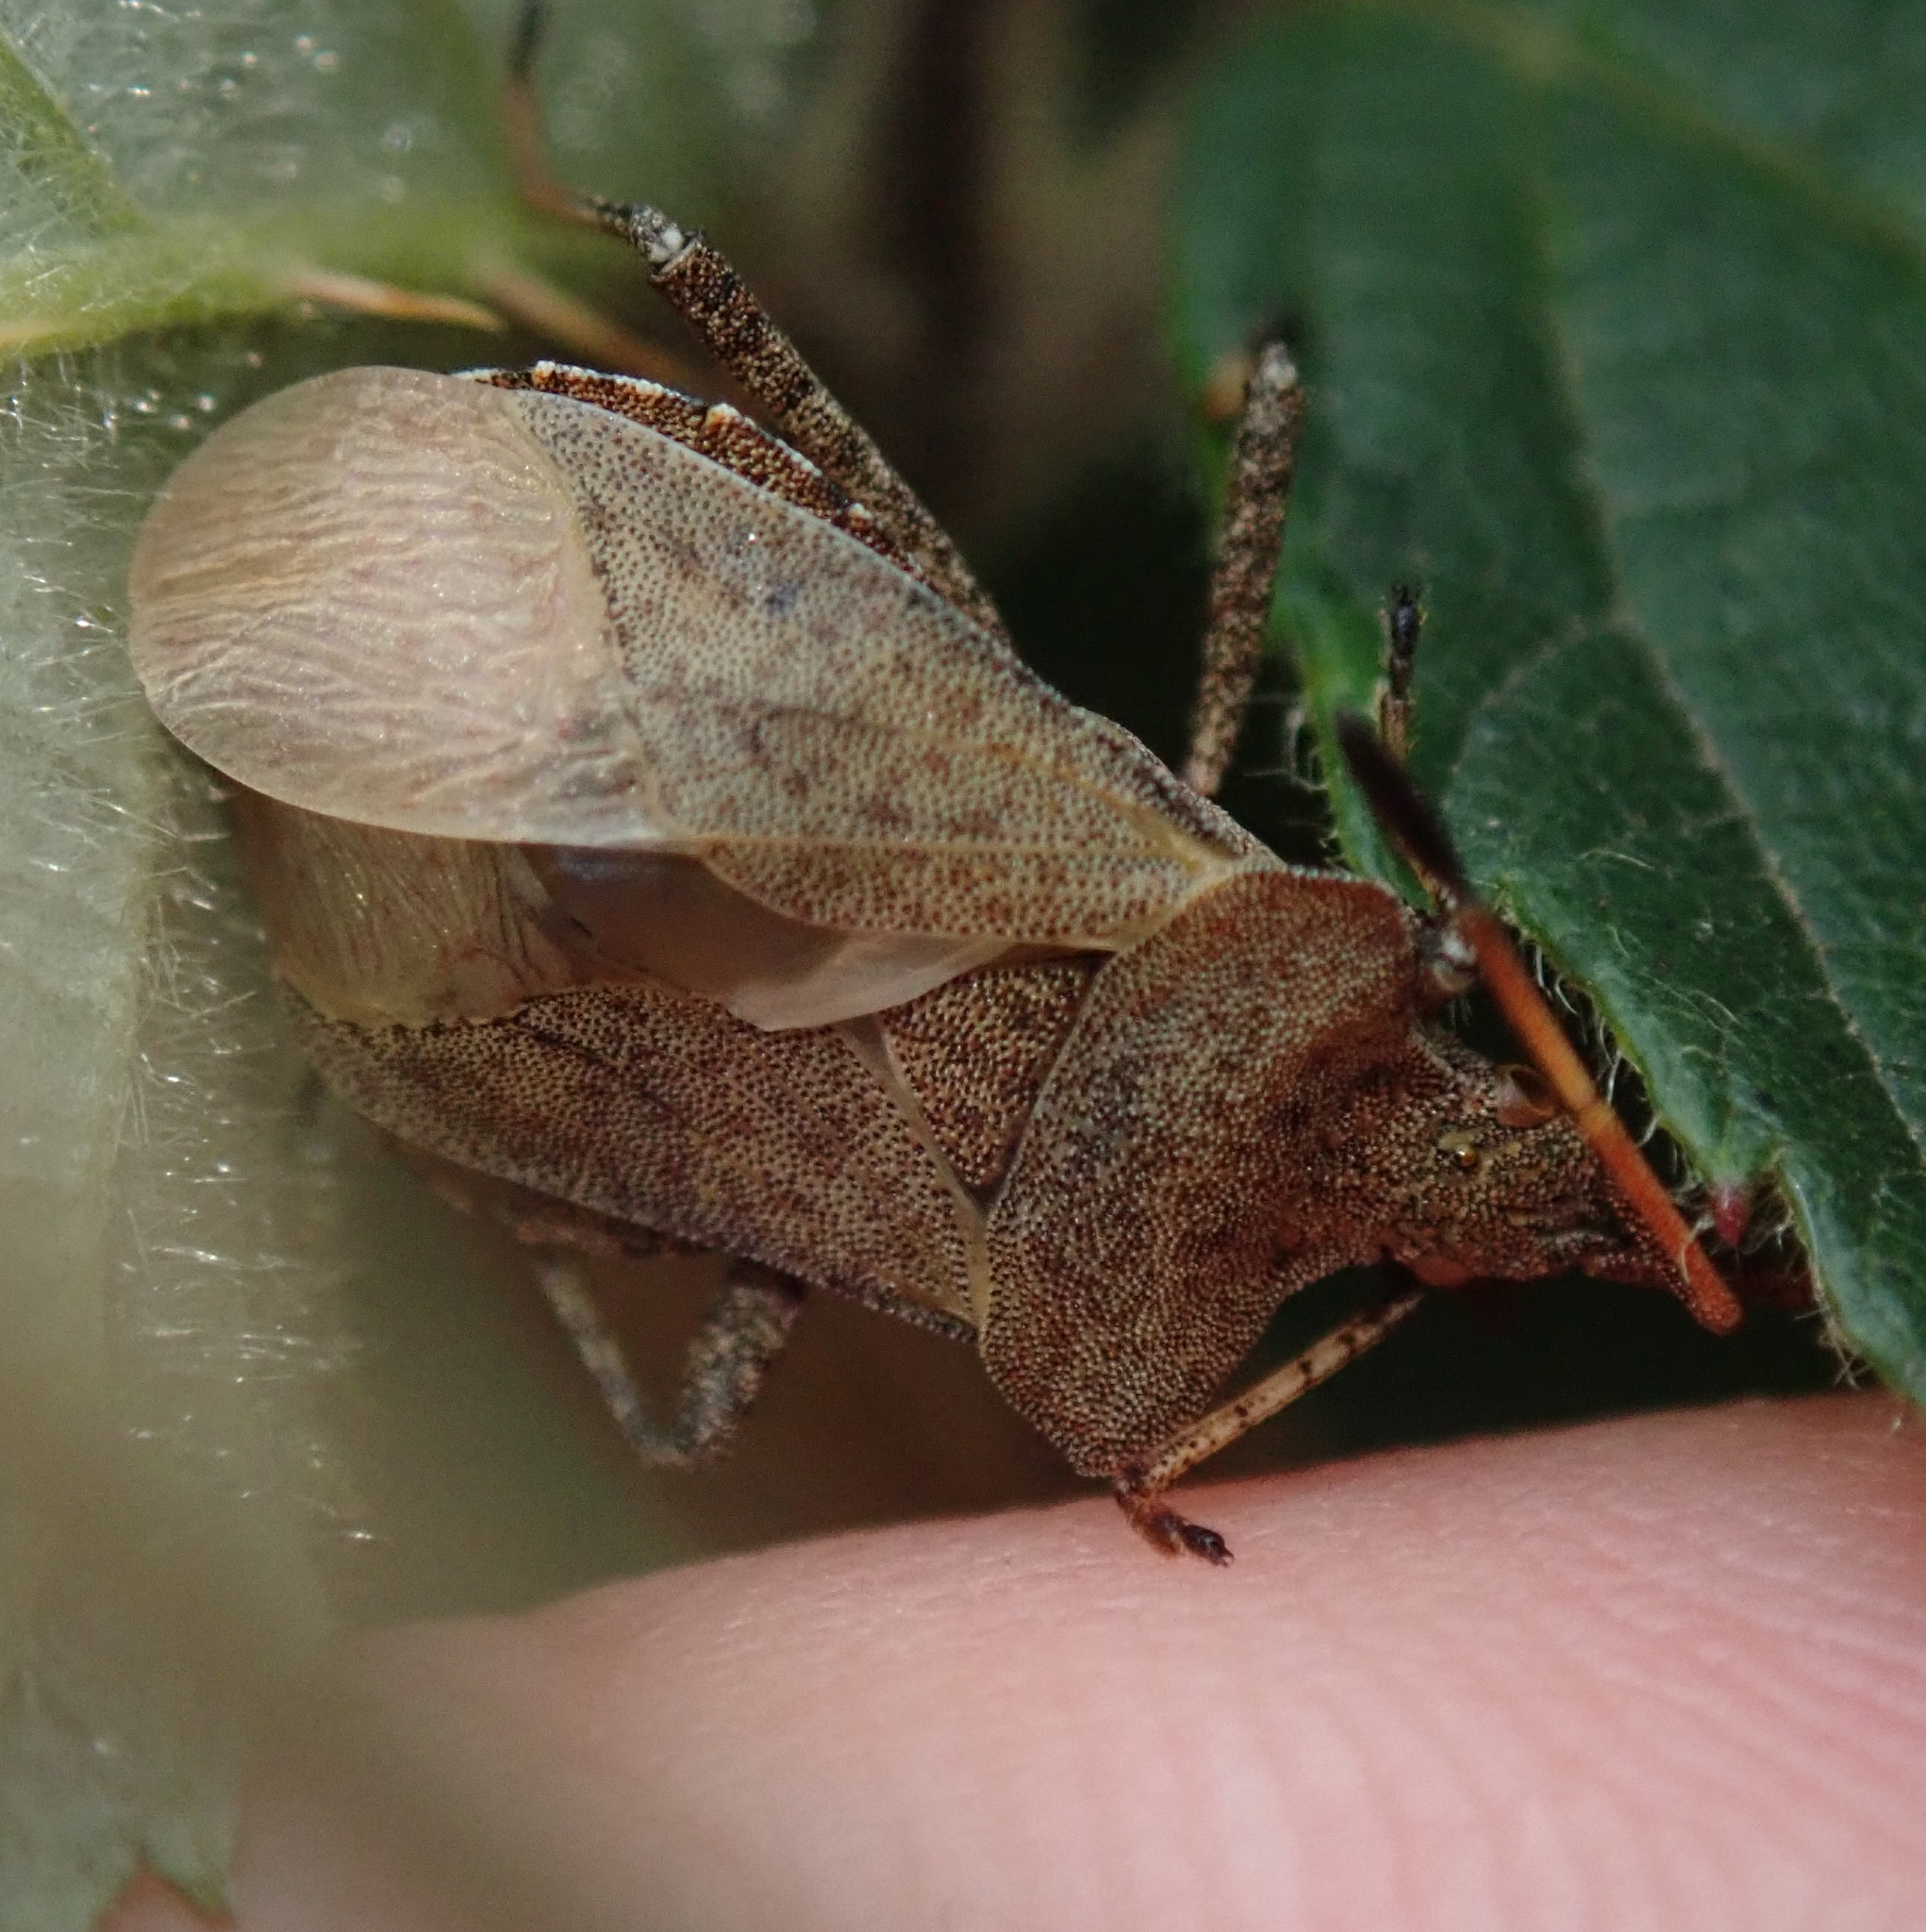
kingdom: Animalia
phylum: Arthropoda
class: Insecta
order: Hemiptera
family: Coreidae
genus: Coreus
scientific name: Coreus marginatus
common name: Dock bug
